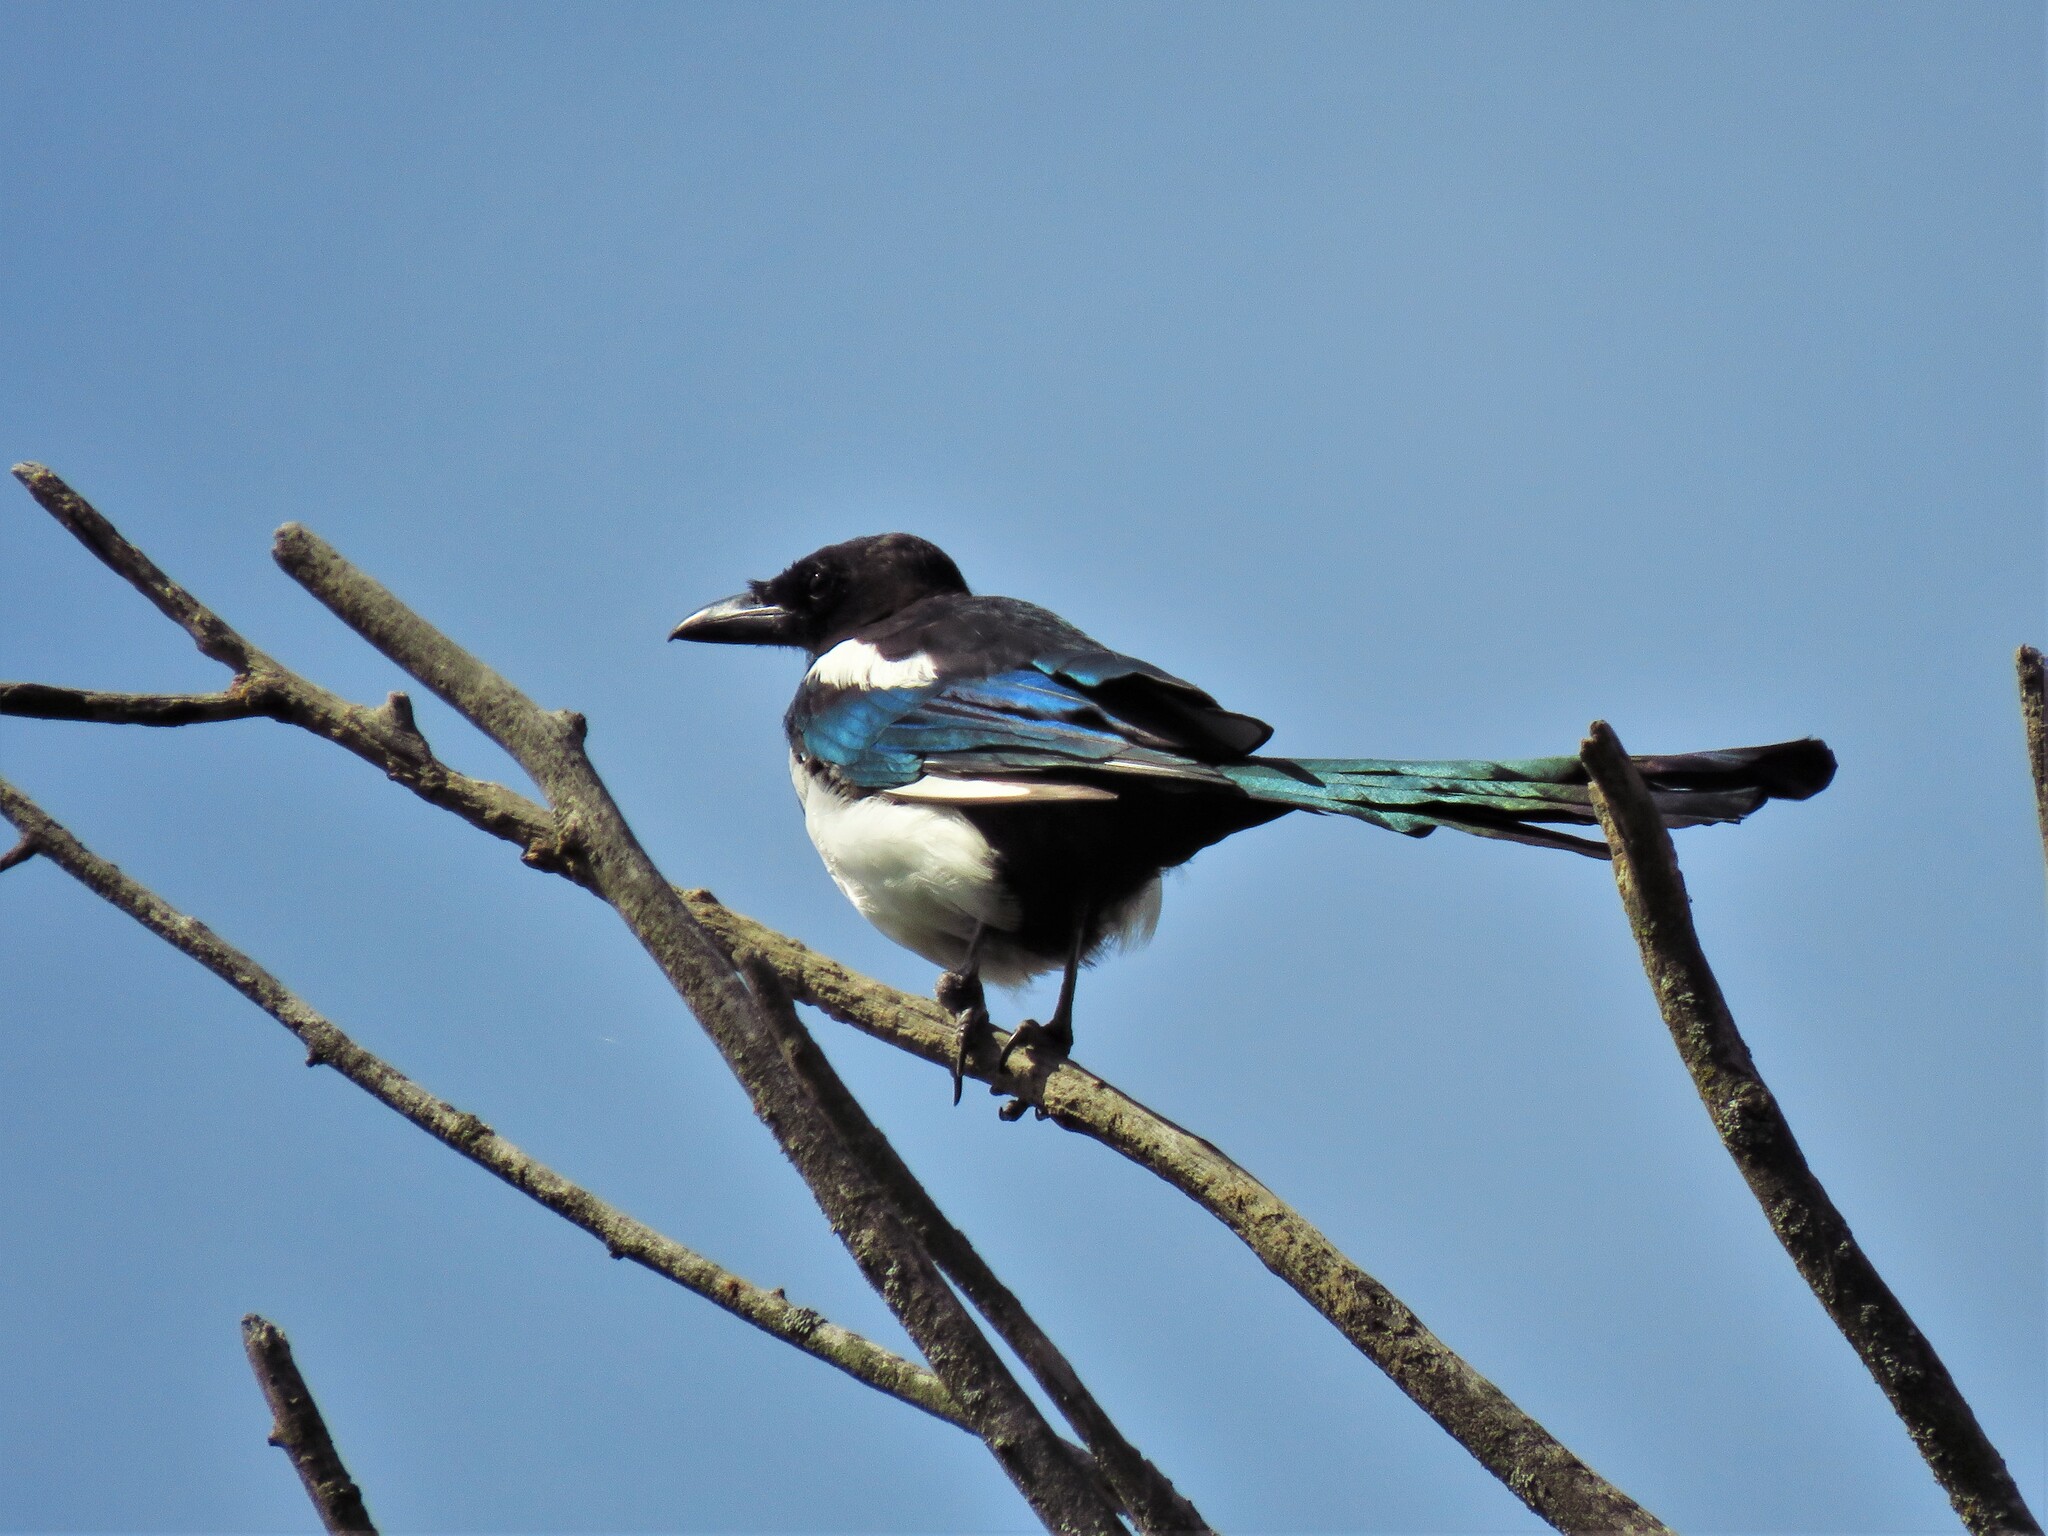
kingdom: Animalia
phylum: Chordata
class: Aves
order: Passeriformes
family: Corvidae
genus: Pica
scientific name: Pica pica
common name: Eurasian magpie
